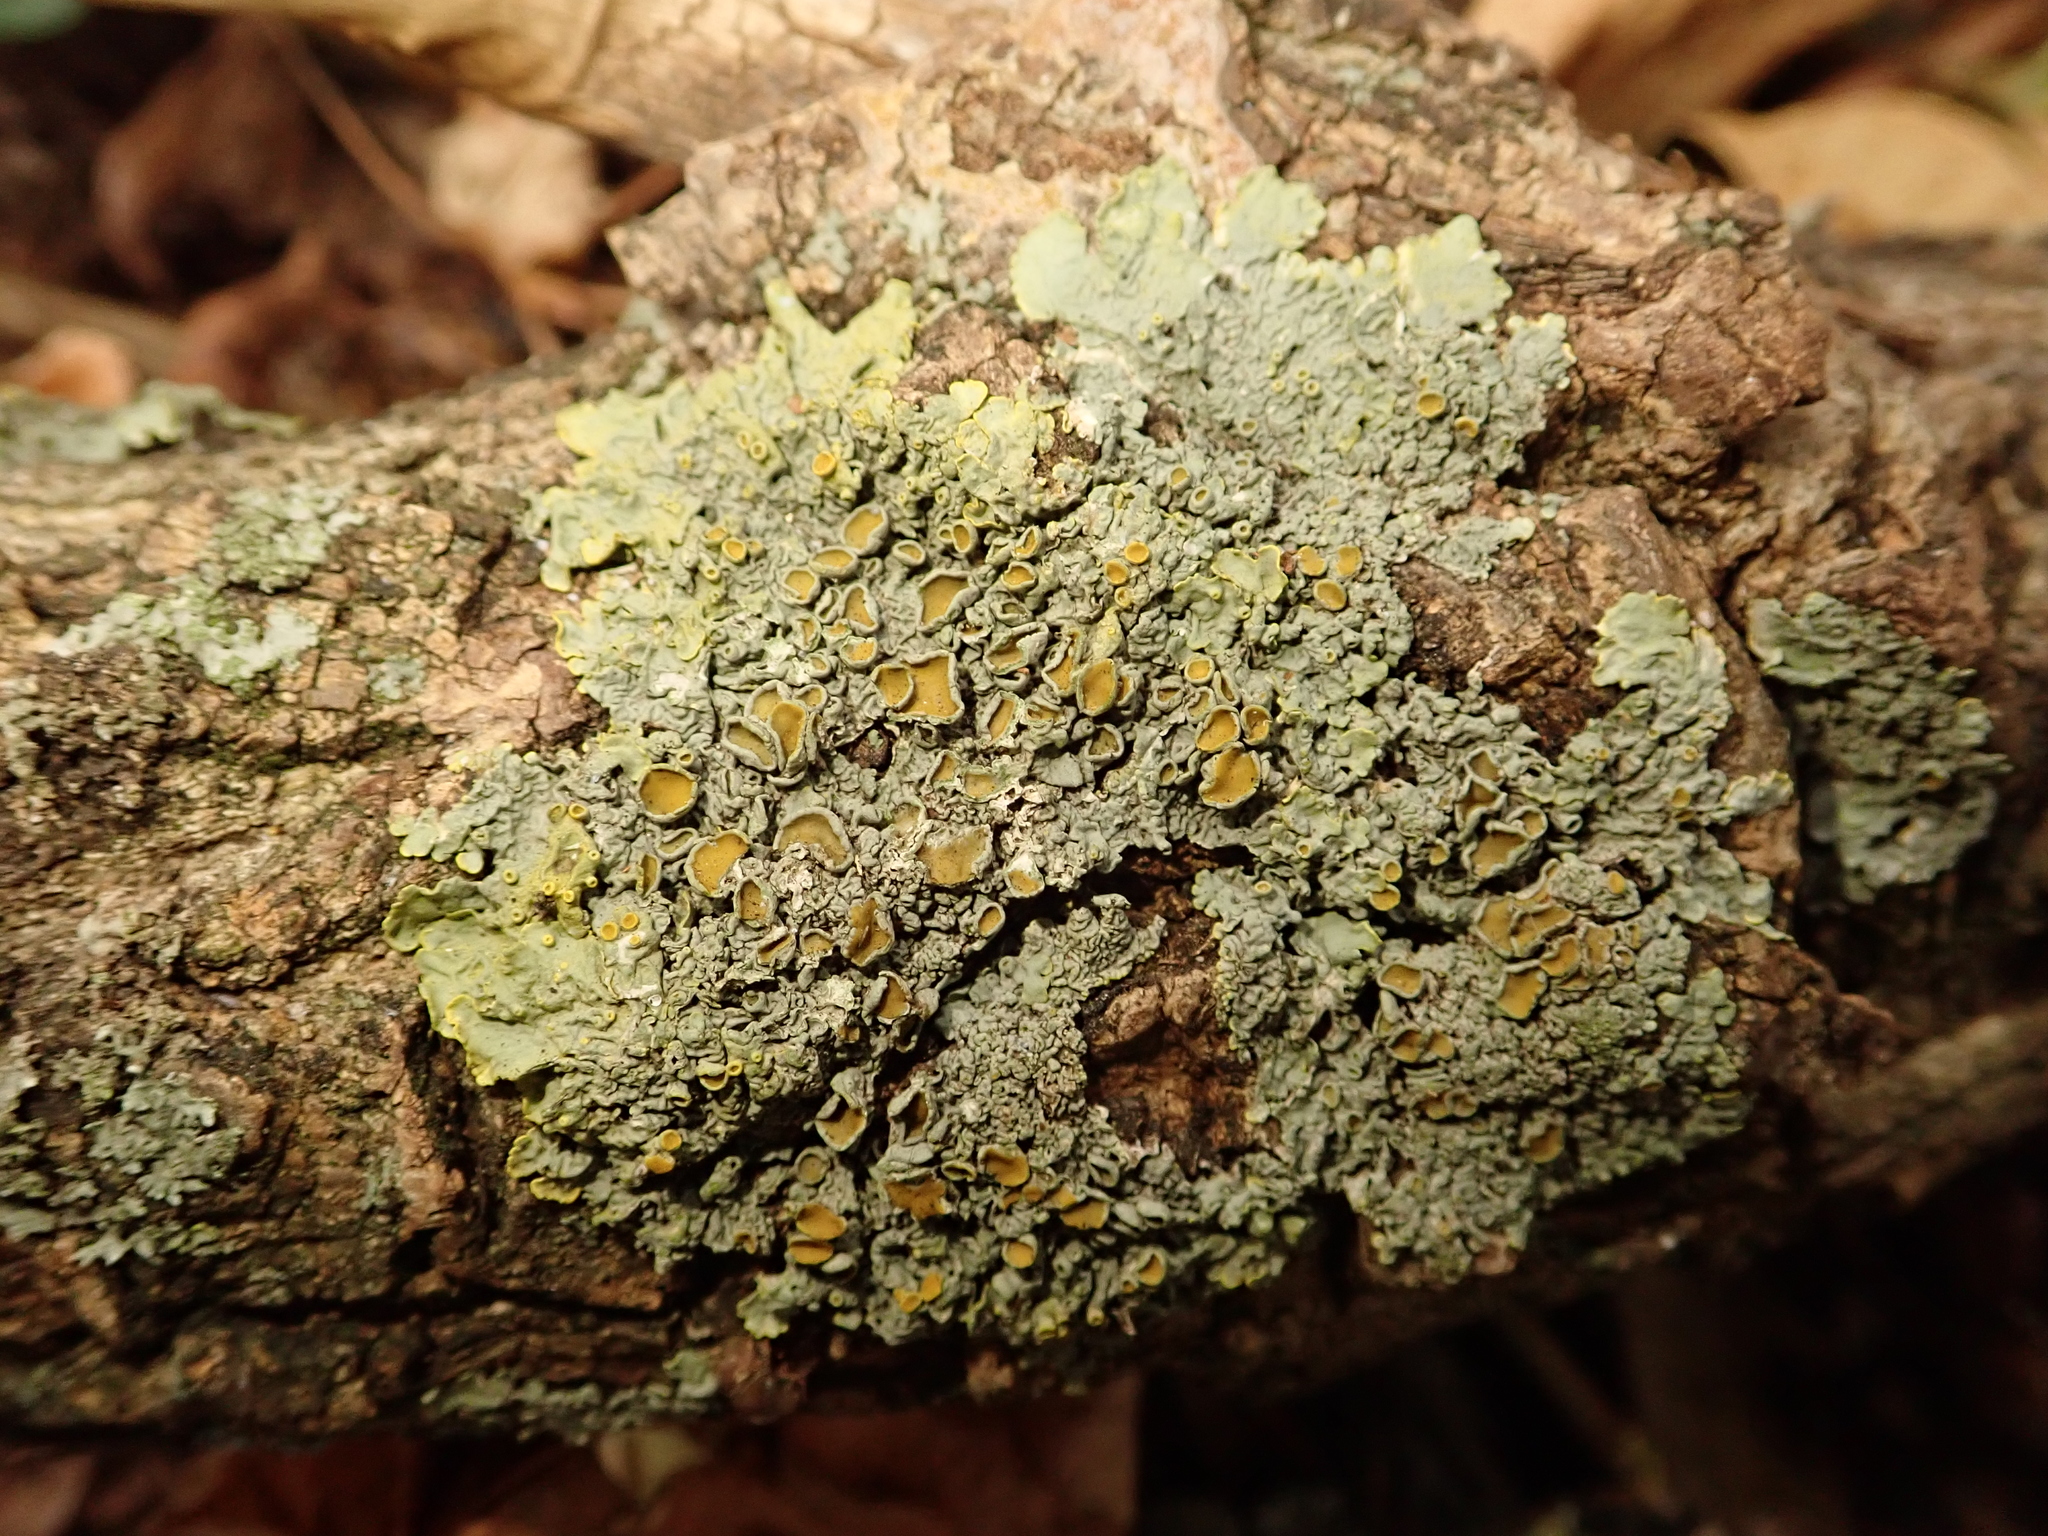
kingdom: Fungi
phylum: Ascomycota
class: Lecanoromycetes
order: Teloschistales
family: Teloschistaceae
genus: Xanthoria
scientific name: Xanthoria parietina
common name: Common orange lichen
